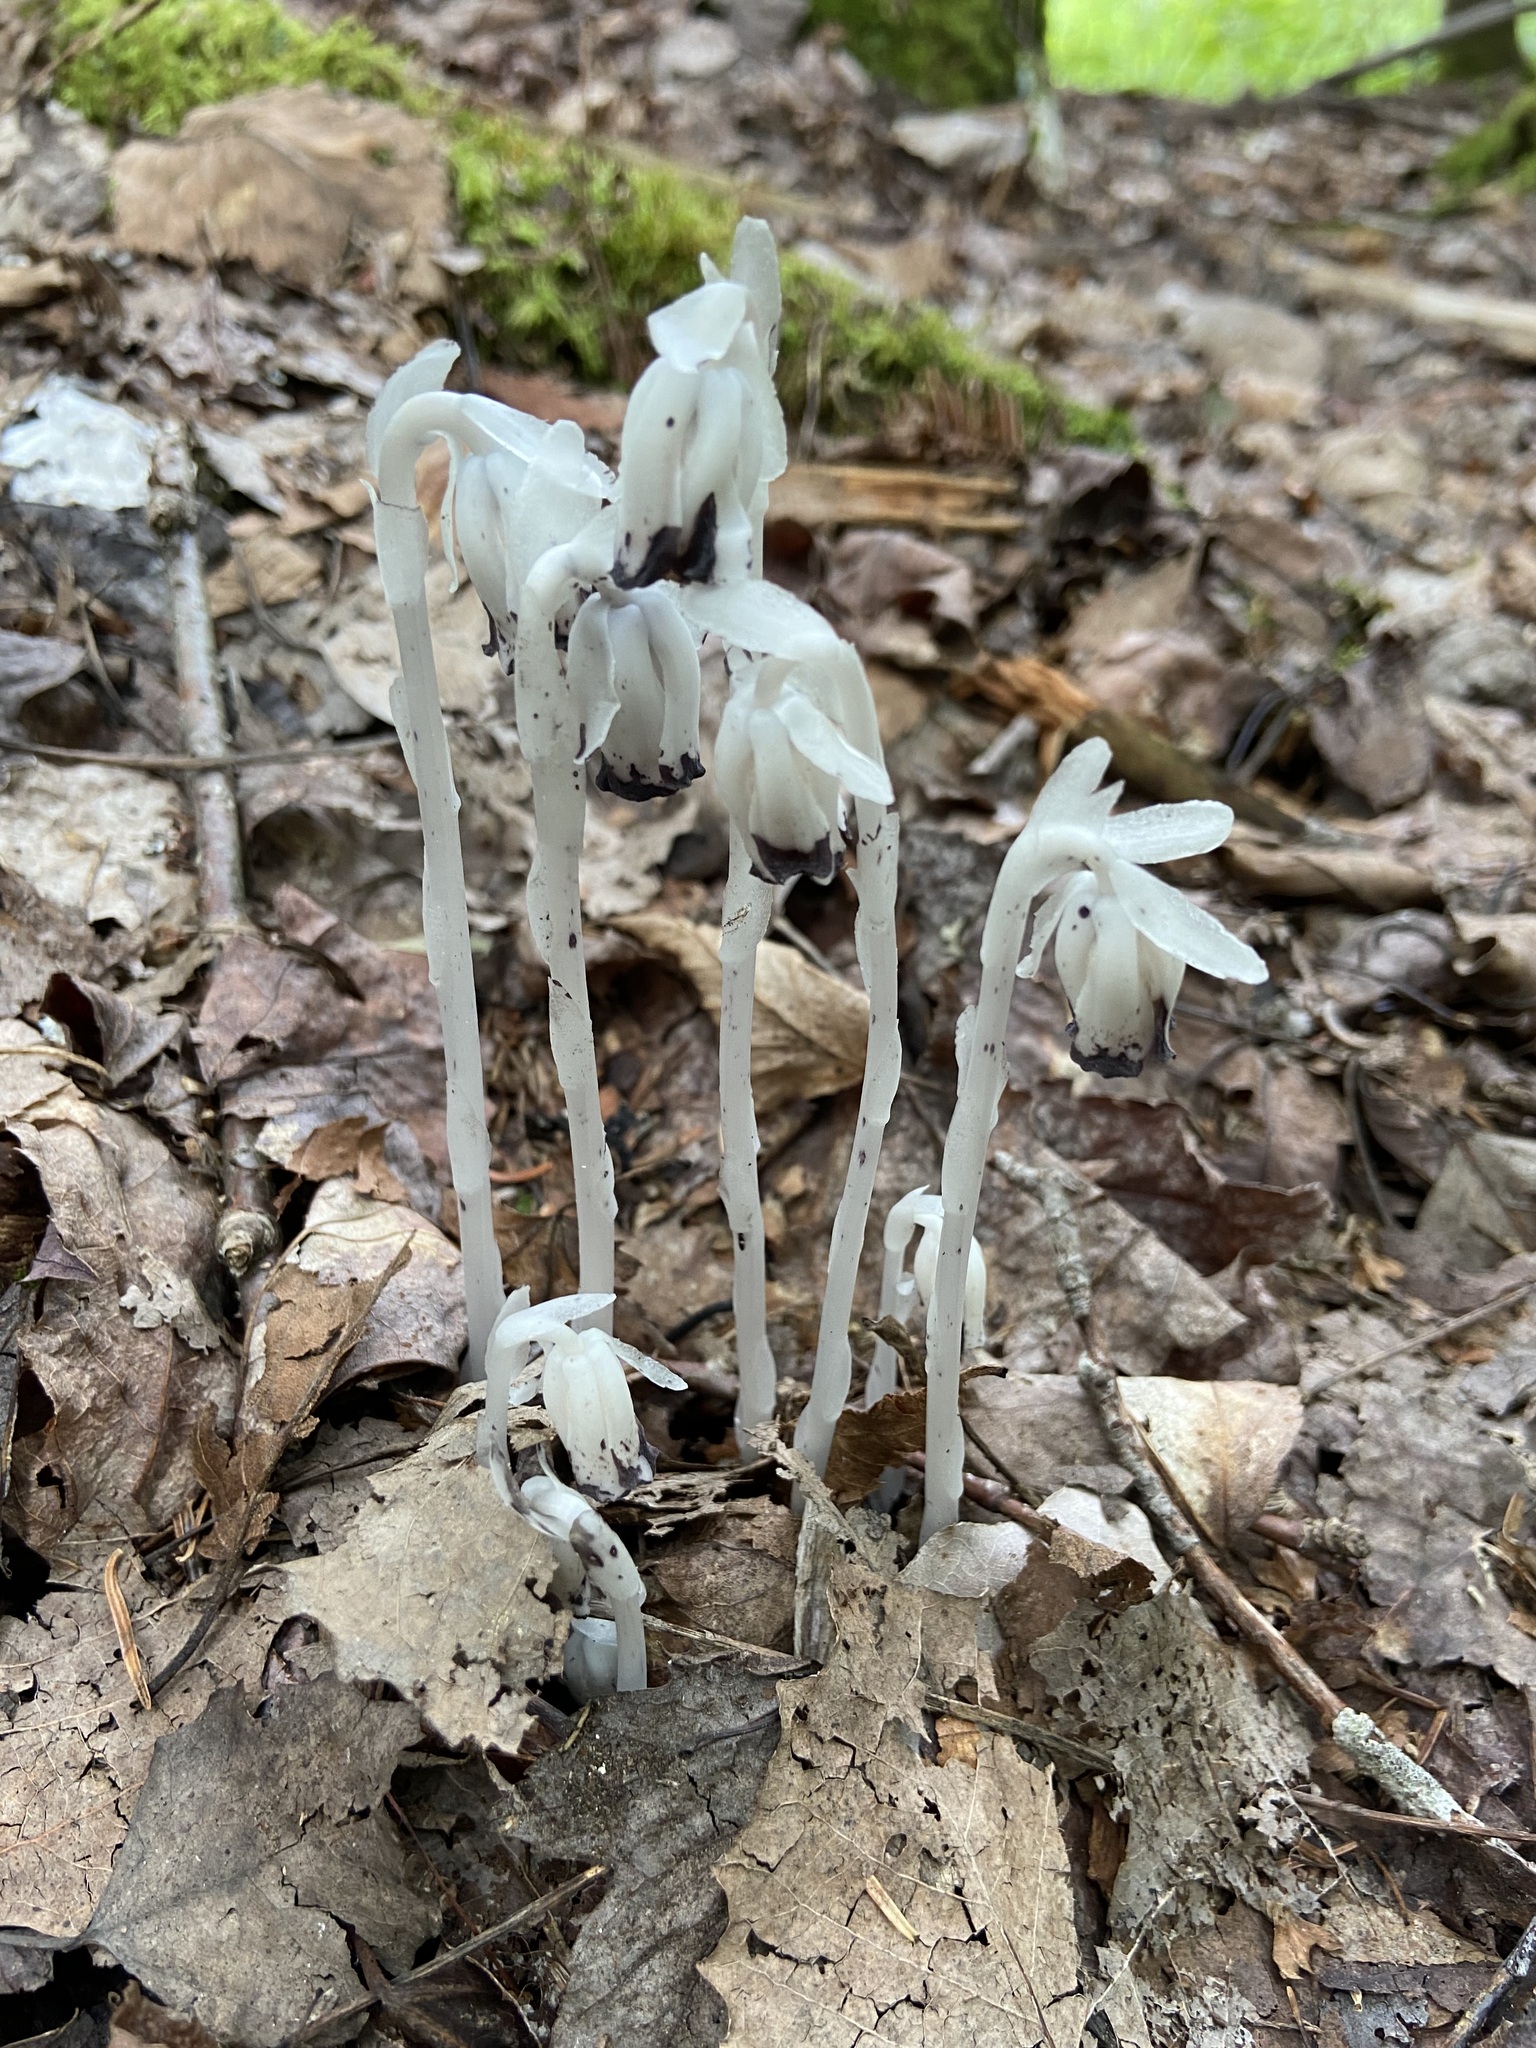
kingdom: Plantae
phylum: Tracheophyta
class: Magnoliopsida
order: Ericales
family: Ericaceae
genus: Monotropa
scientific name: Monotropa uniflora
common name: Convulsion root
